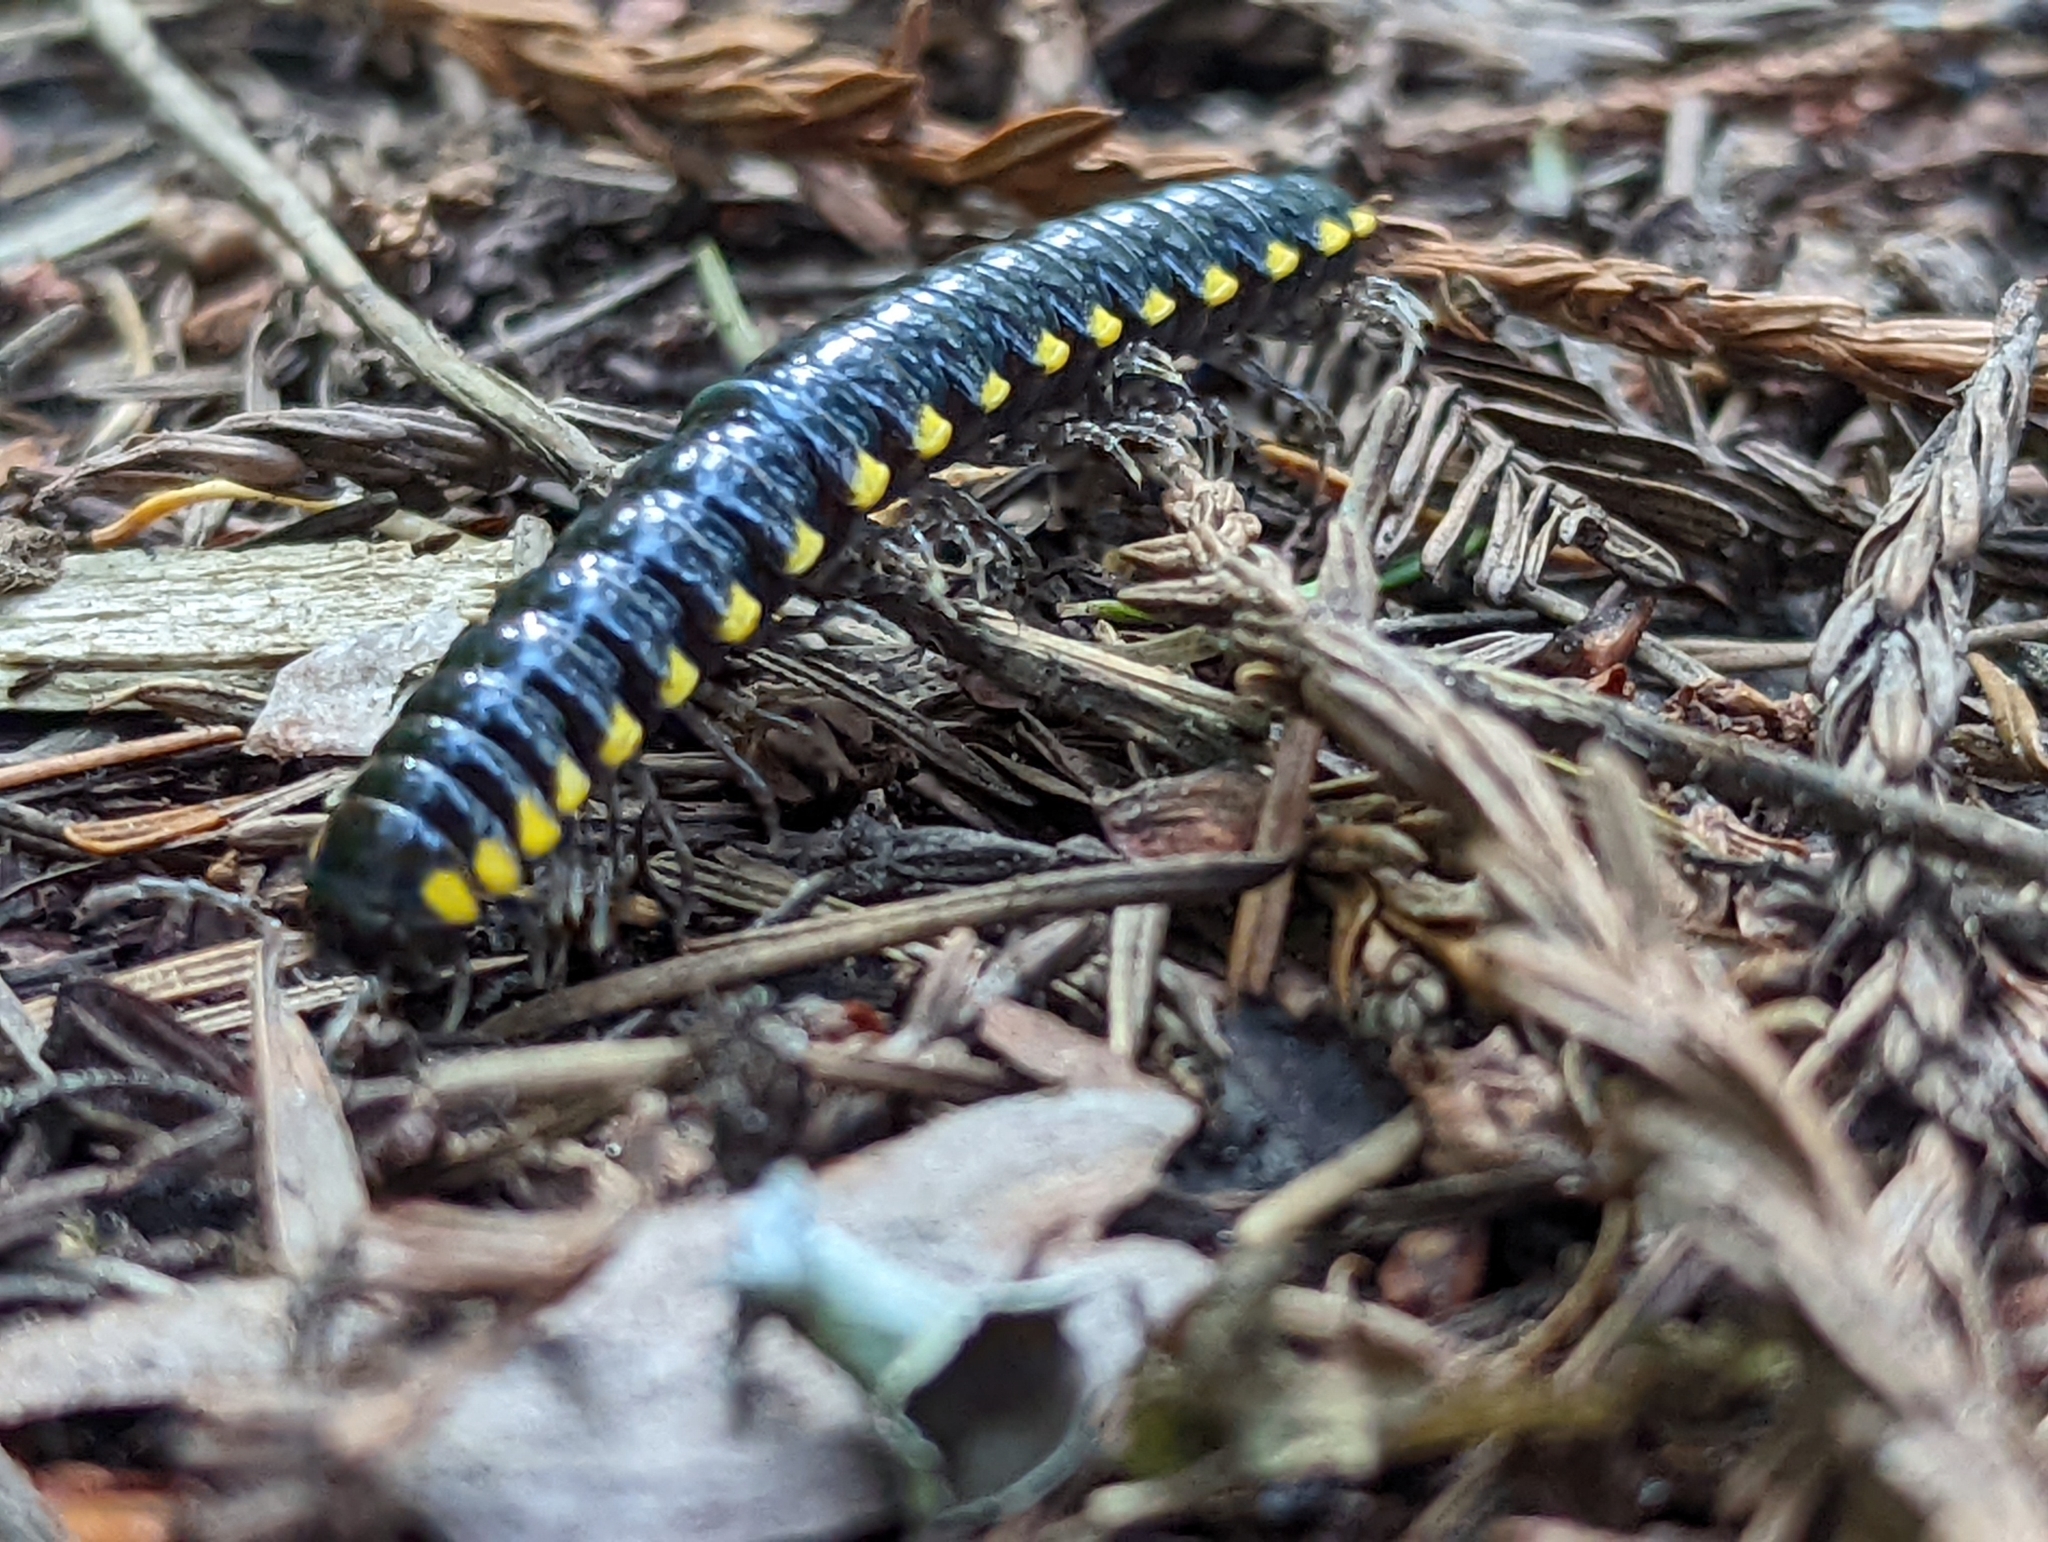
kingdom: Animalia
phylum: Arthropoda
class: Diplopoda
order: Polydesmida
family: Xystodesmidae
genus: Harpaphe
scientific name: Harpaphe haydeniana
